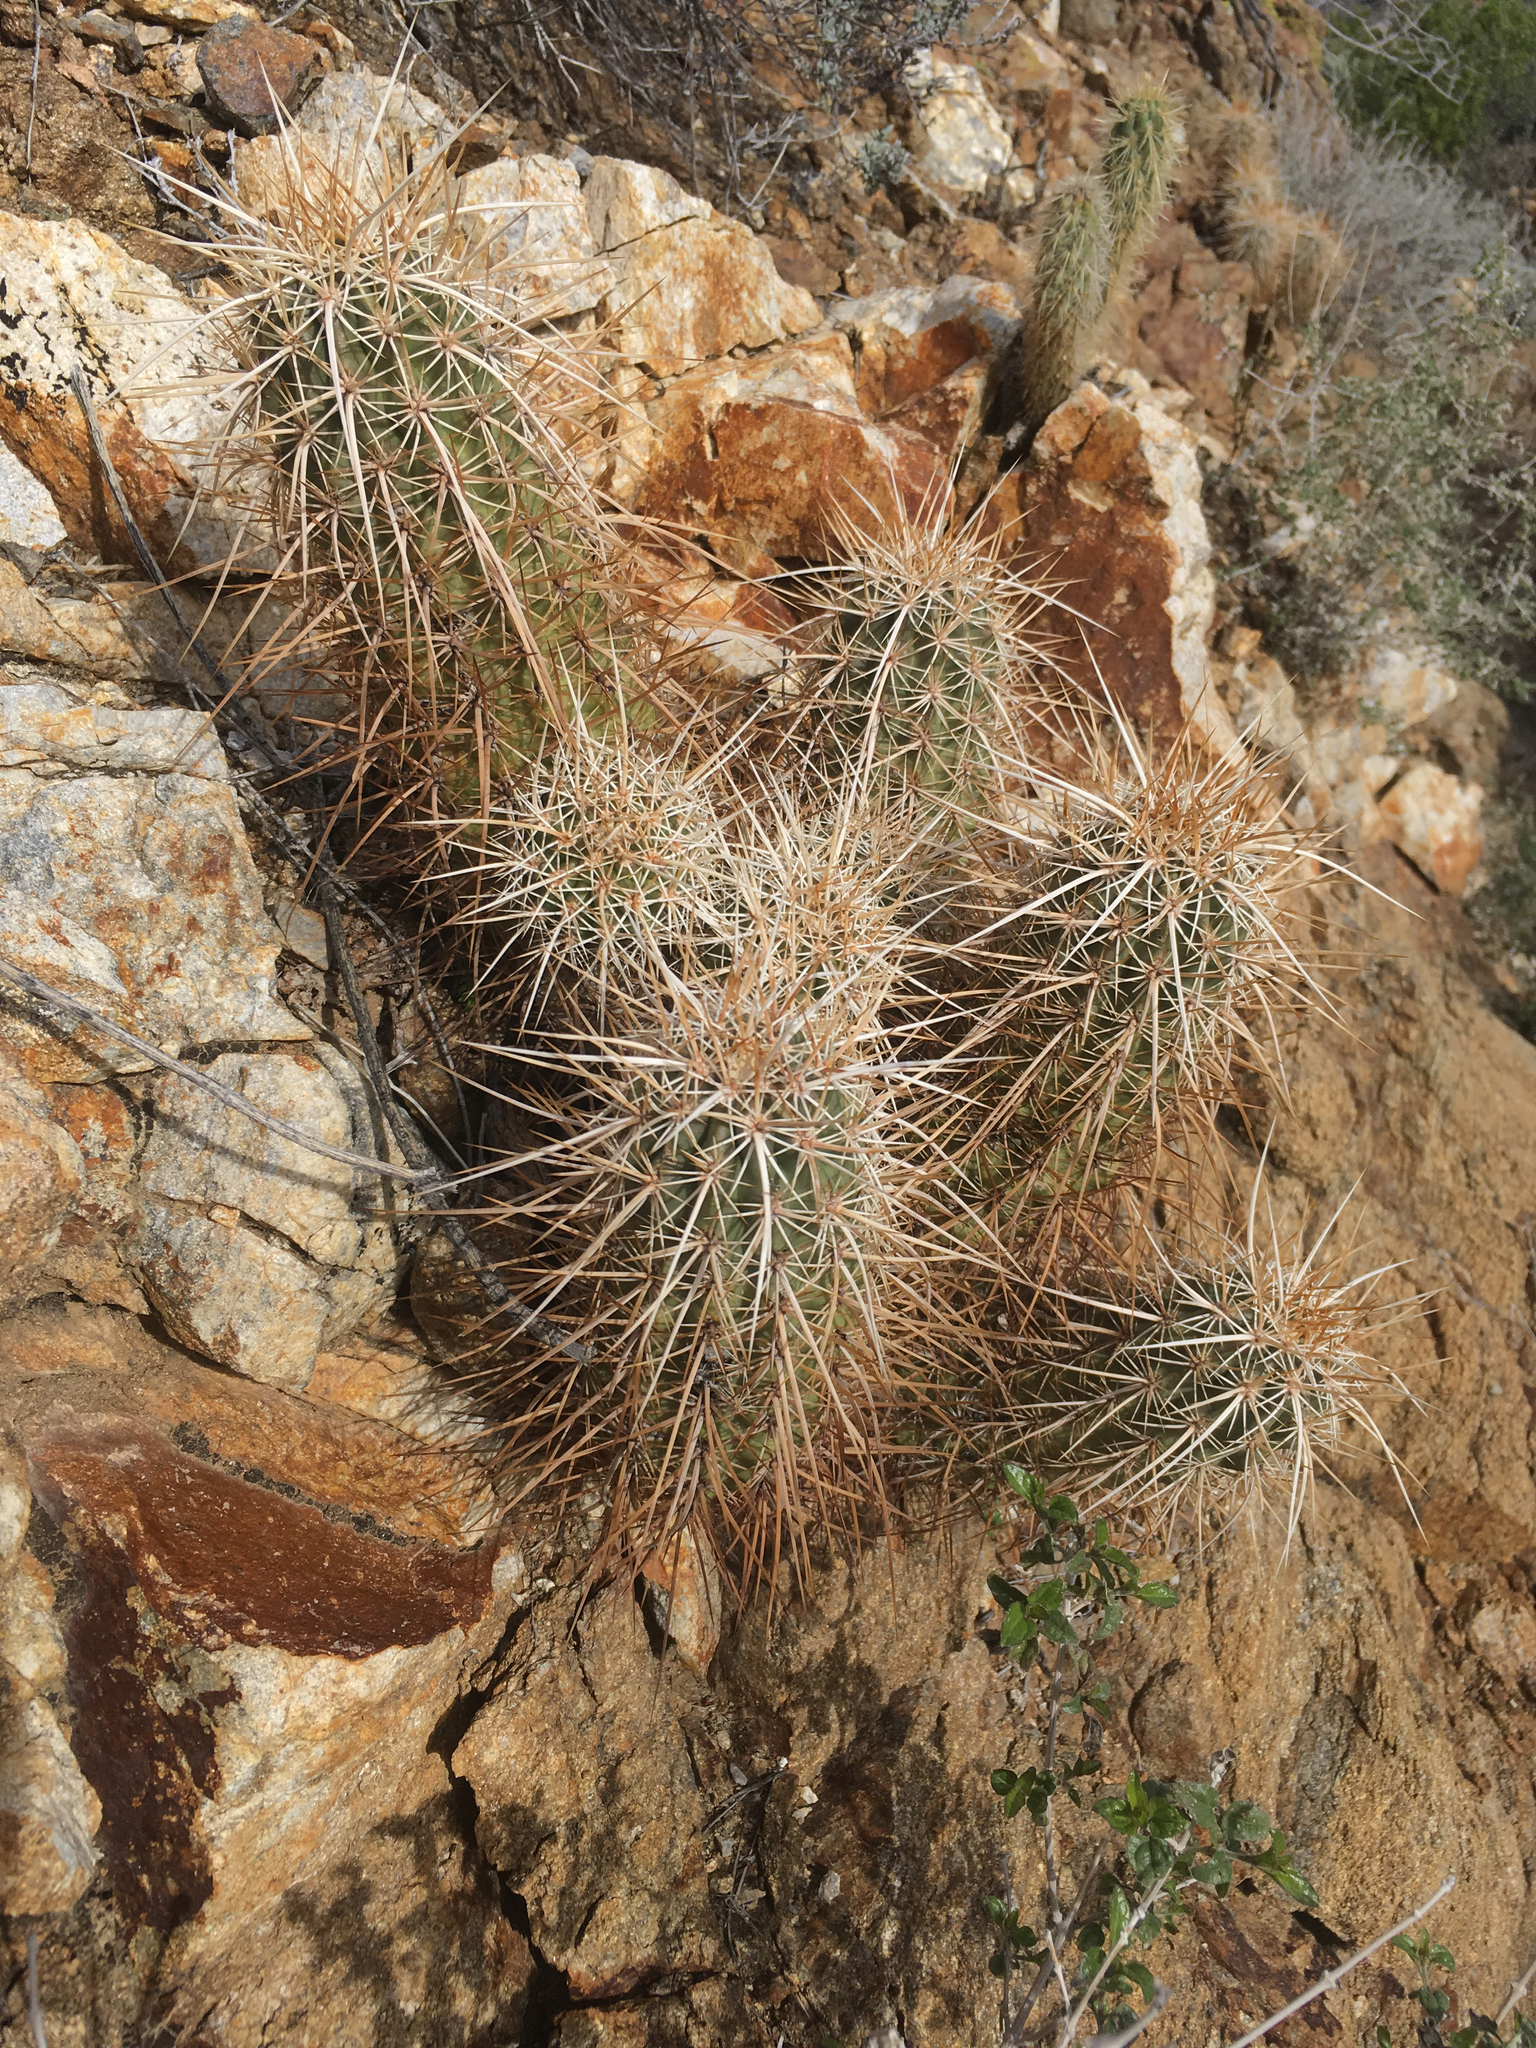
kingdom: Plantae
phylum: Tracheophyta
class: Magnoliopsida
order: Caryophyllales
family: Cactaceae
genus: Echinocereus
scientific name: Echinocereus engelmannii
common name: Engelmann's hedgehog cactus
